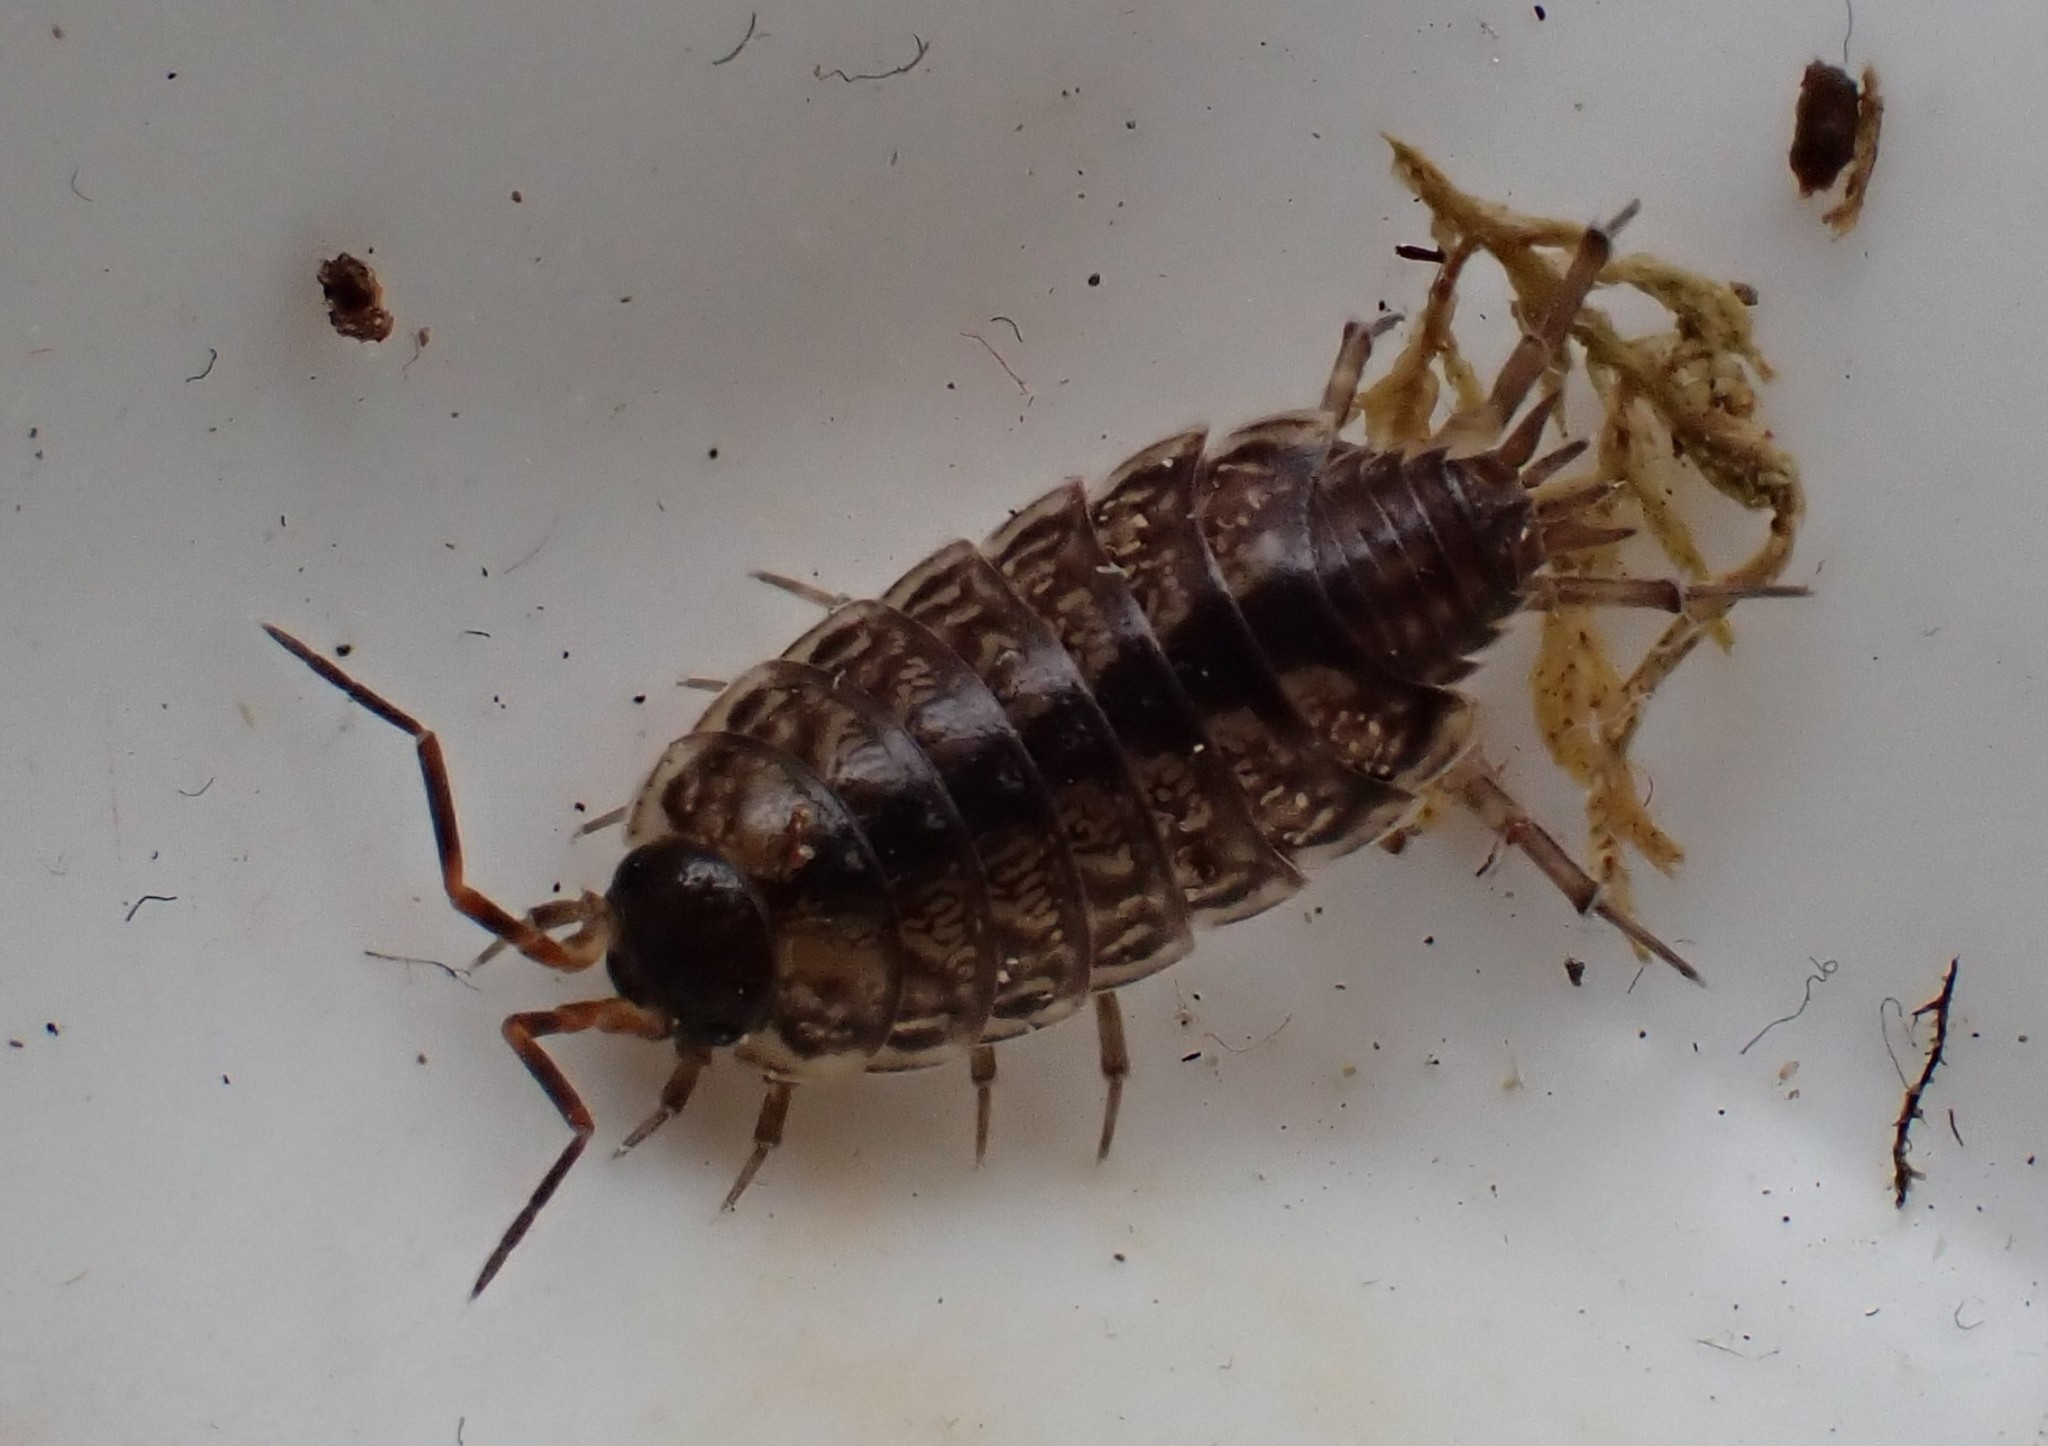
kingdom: Animalia
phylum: Arthropoda
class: Malacostraca
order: Isopoda
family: Philosciidae
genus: Philoscia
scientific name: Philoscia muscorum
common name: Common striped woodlouse
